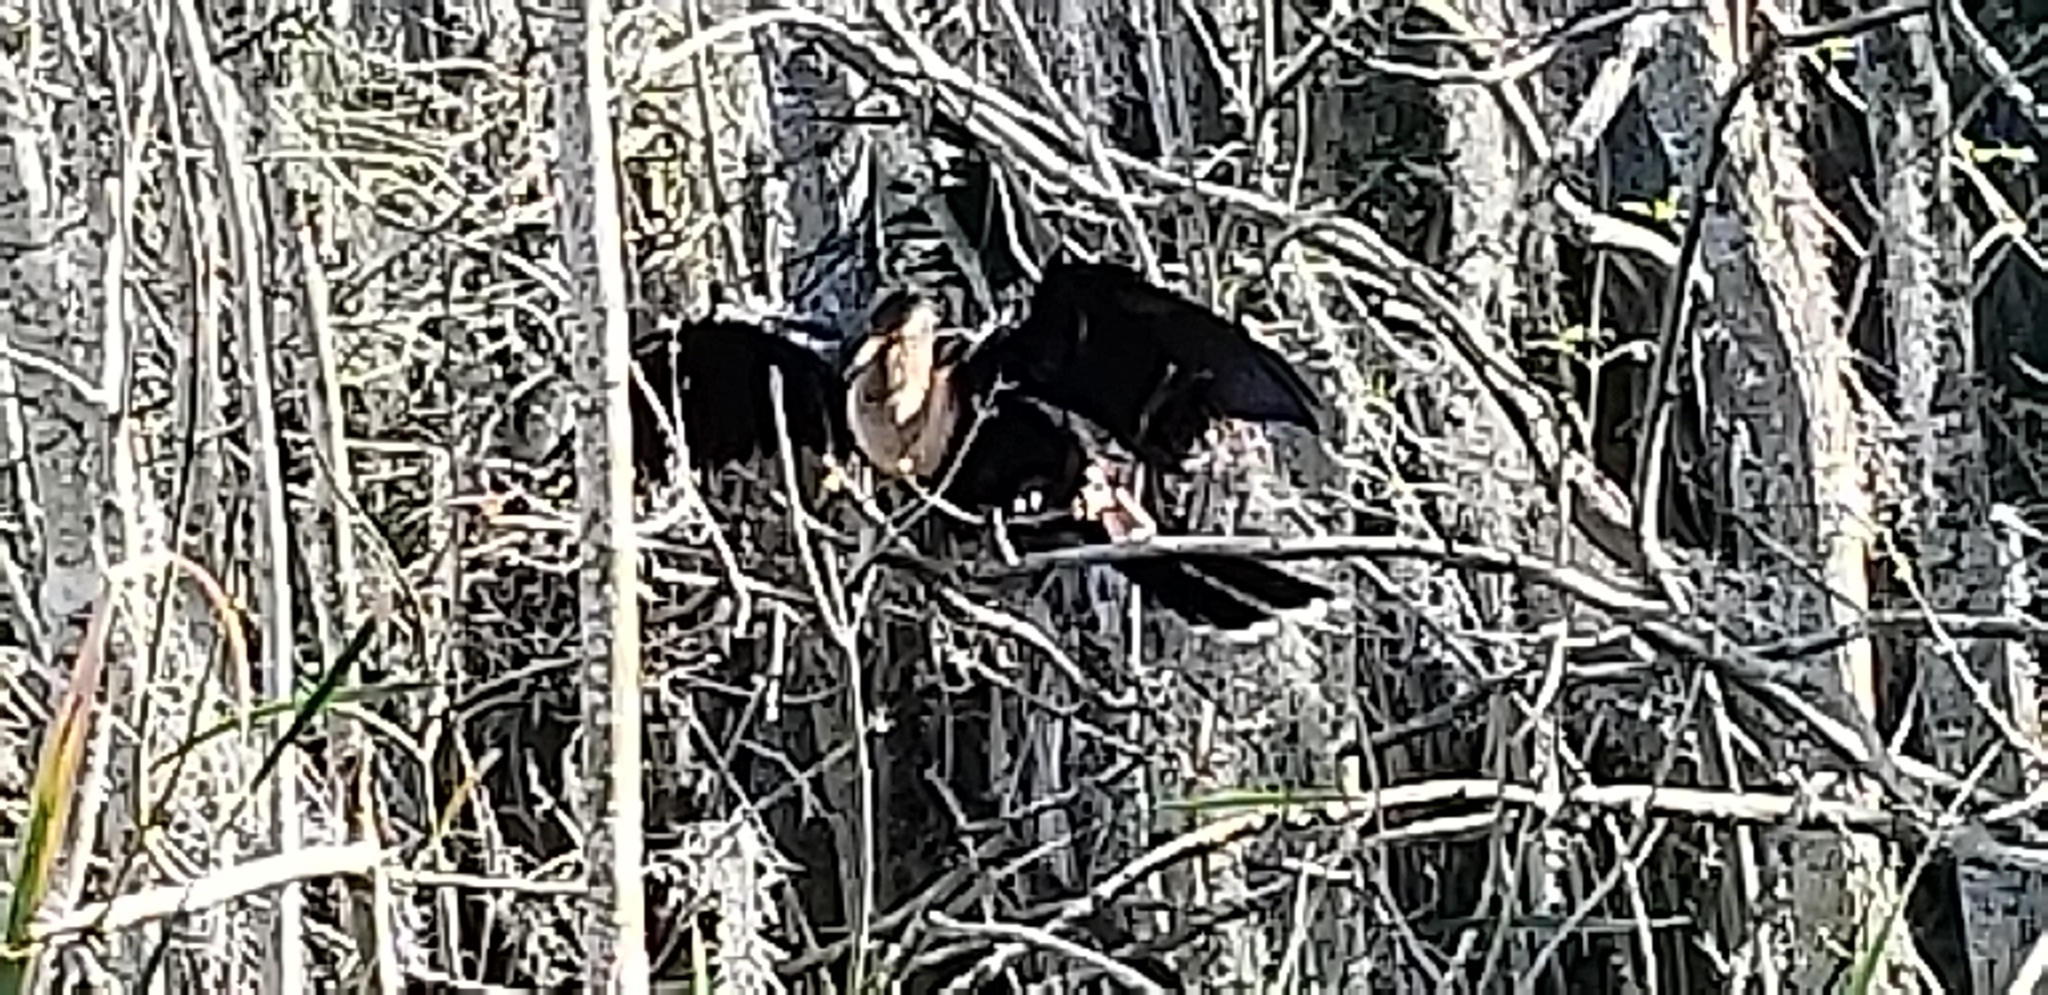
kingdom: Animalia
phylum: Chordata
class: Aves
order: Suliformes
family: Anhingidae
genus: Anhinga
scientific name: Anhinga anhinga
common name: Anhinga
